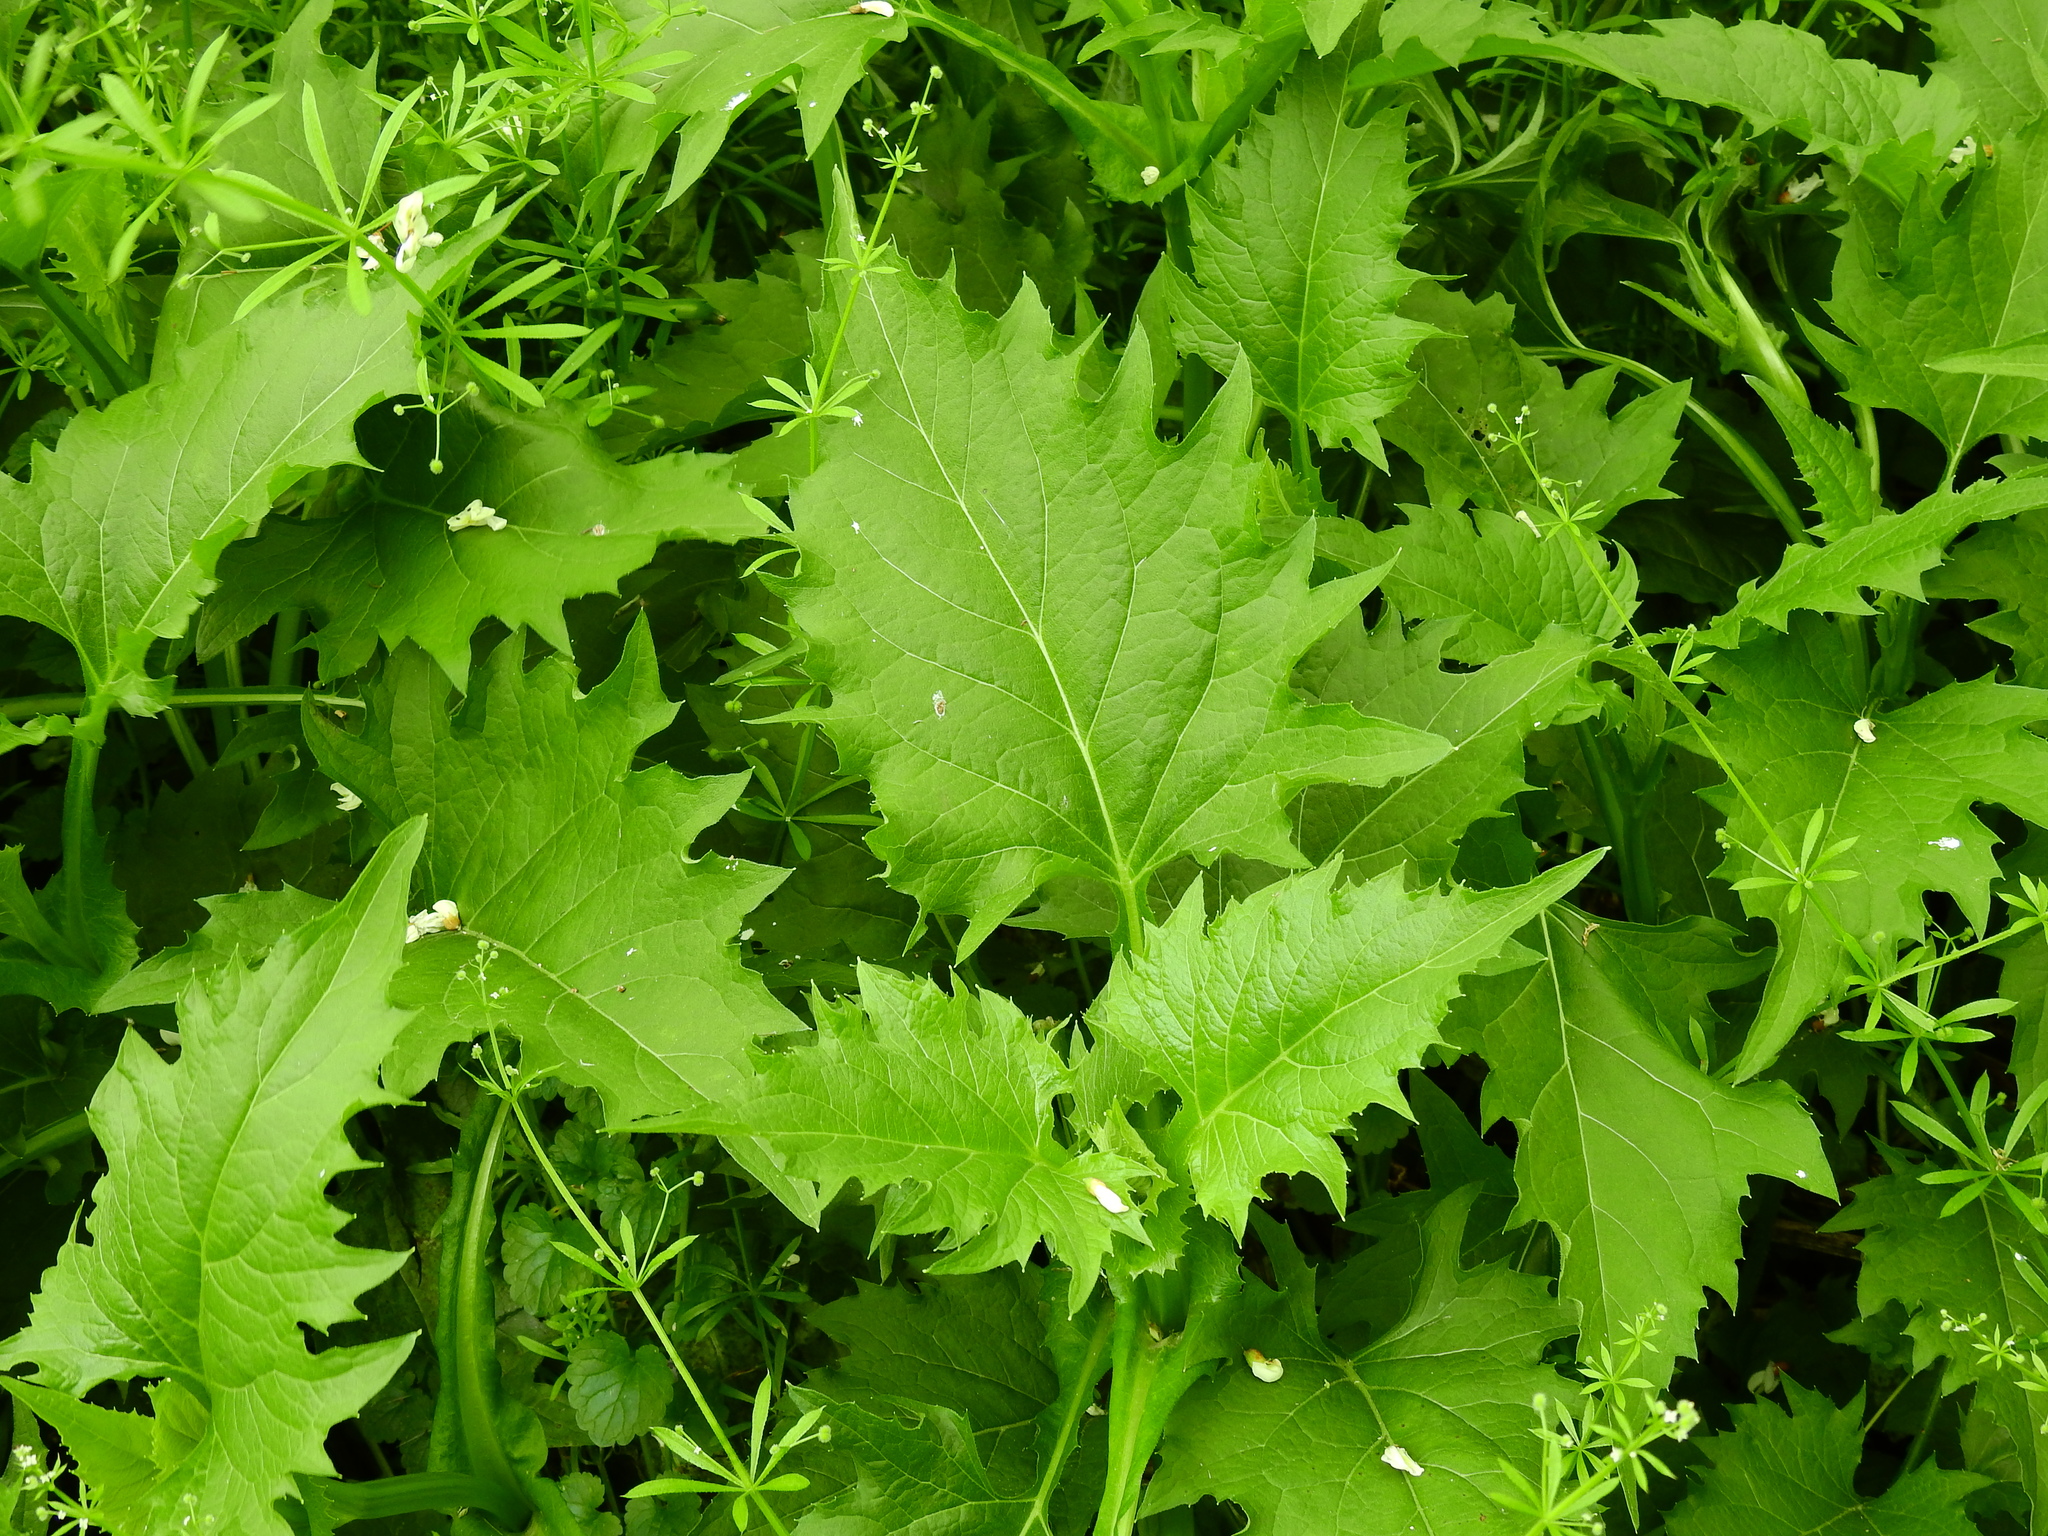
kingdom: Plantae
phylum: Tracheophyta
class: Magnoliopsida
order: Asterales
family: Asteraceae
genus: Silphium
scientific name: Silphium perfoliatum
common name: Cup-plant
